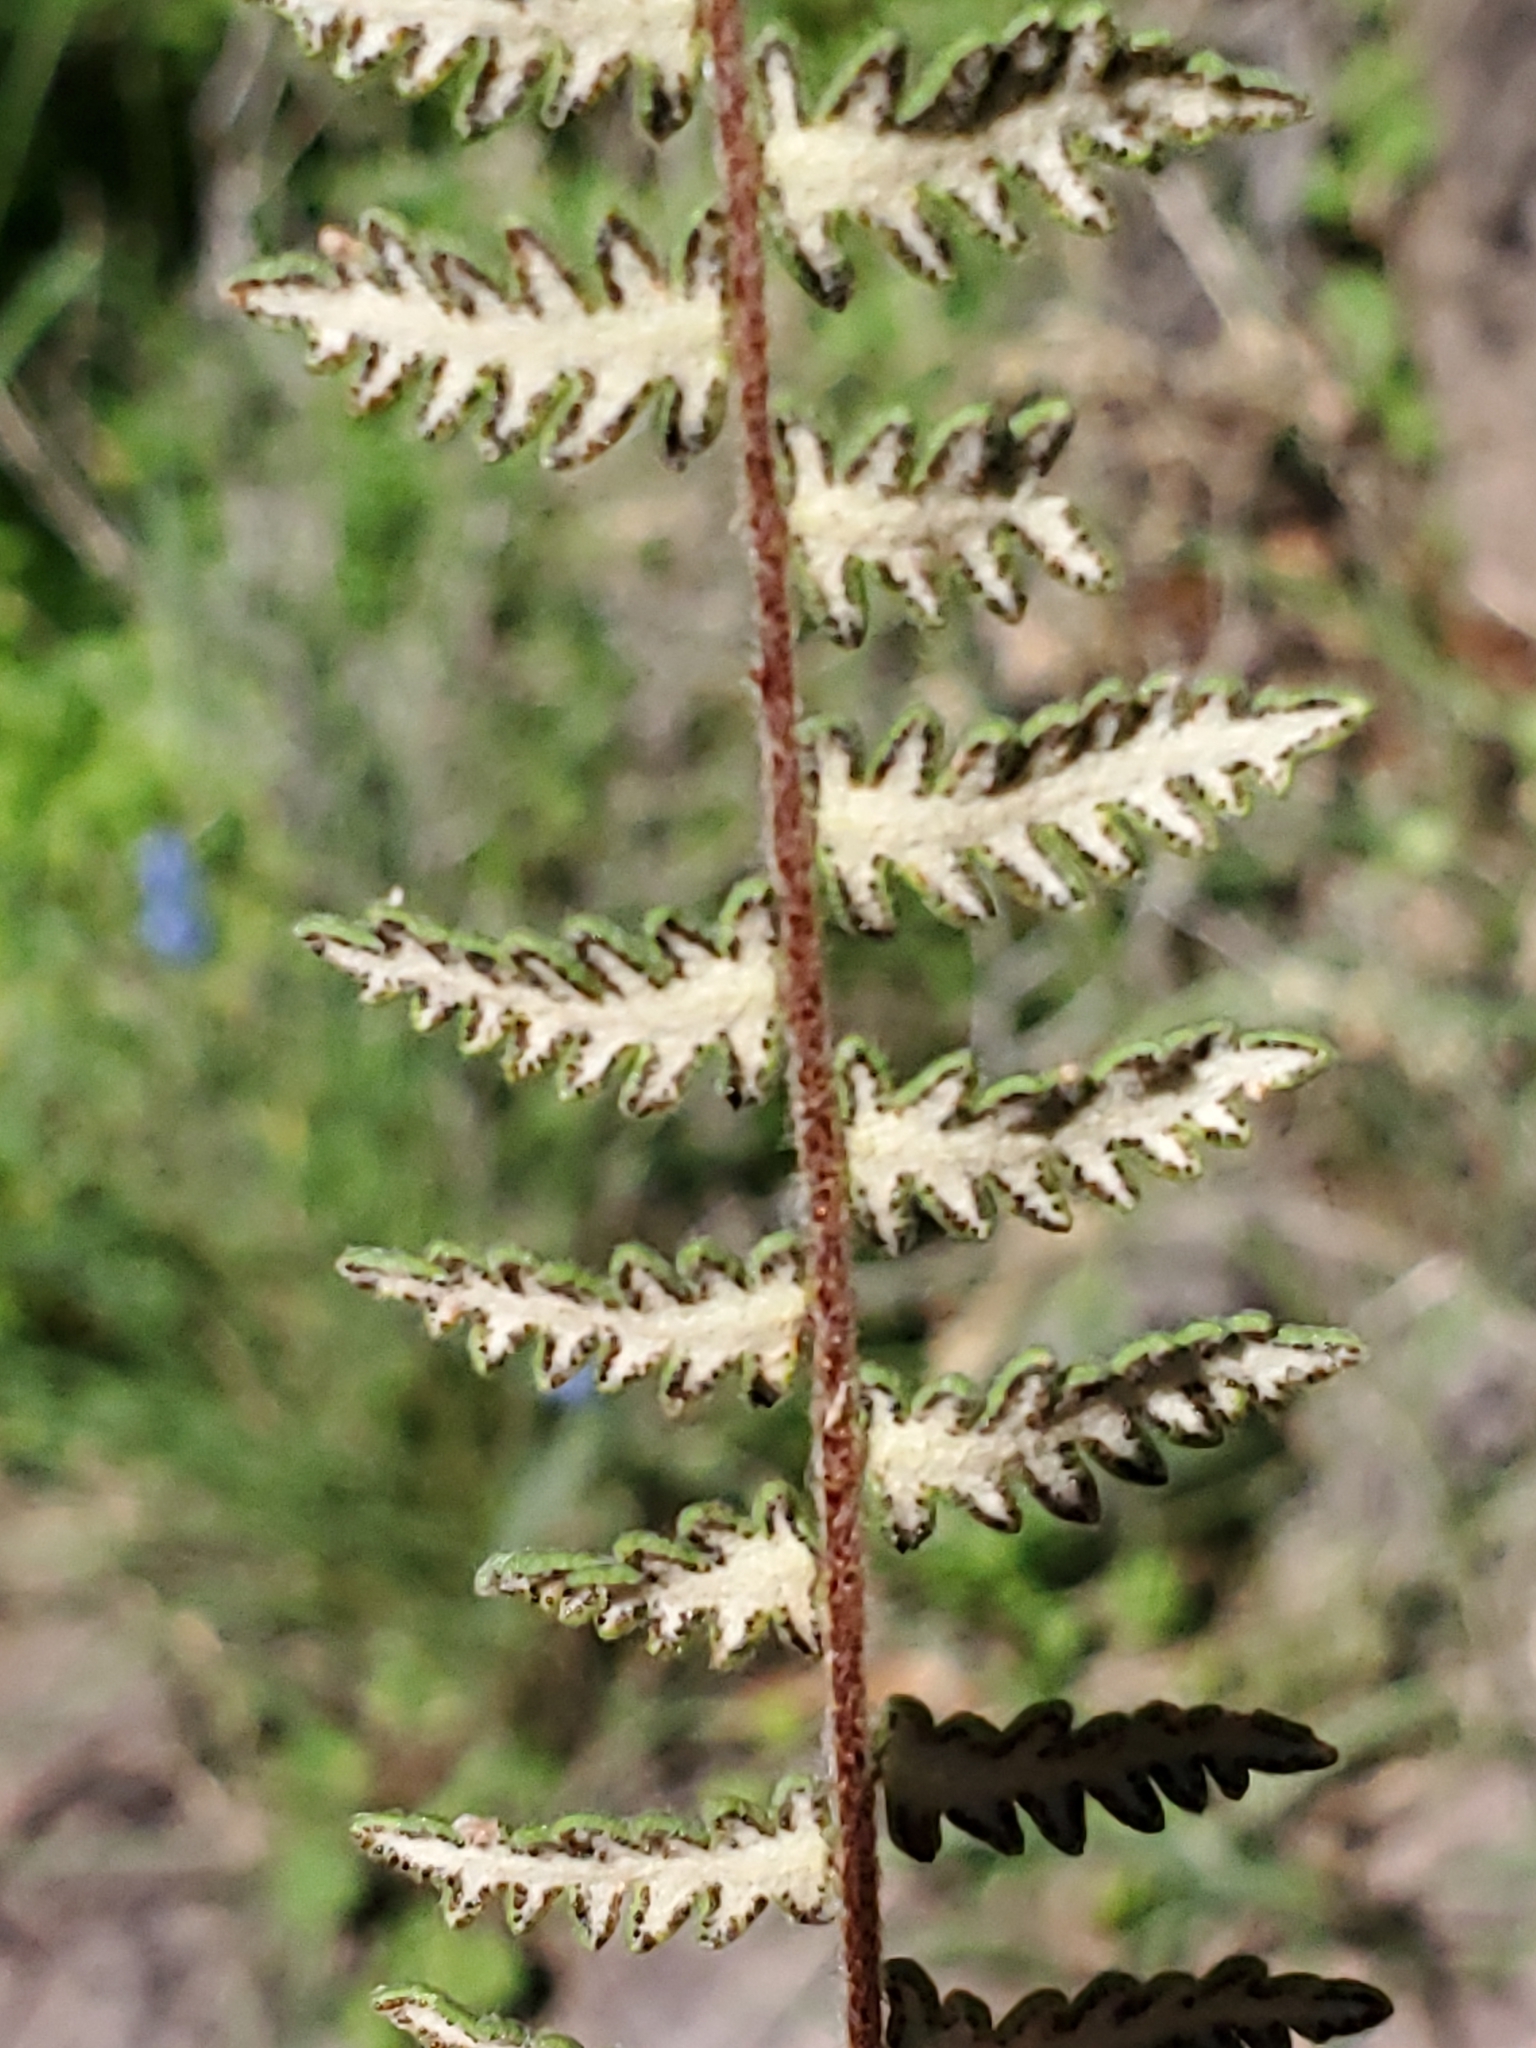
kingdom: Plantae
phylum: Tracheophyta
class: Polypodiopsida
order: Polypodiales
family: Pteridaceae
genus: Myriopteris
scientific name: Myriopteris aurea
